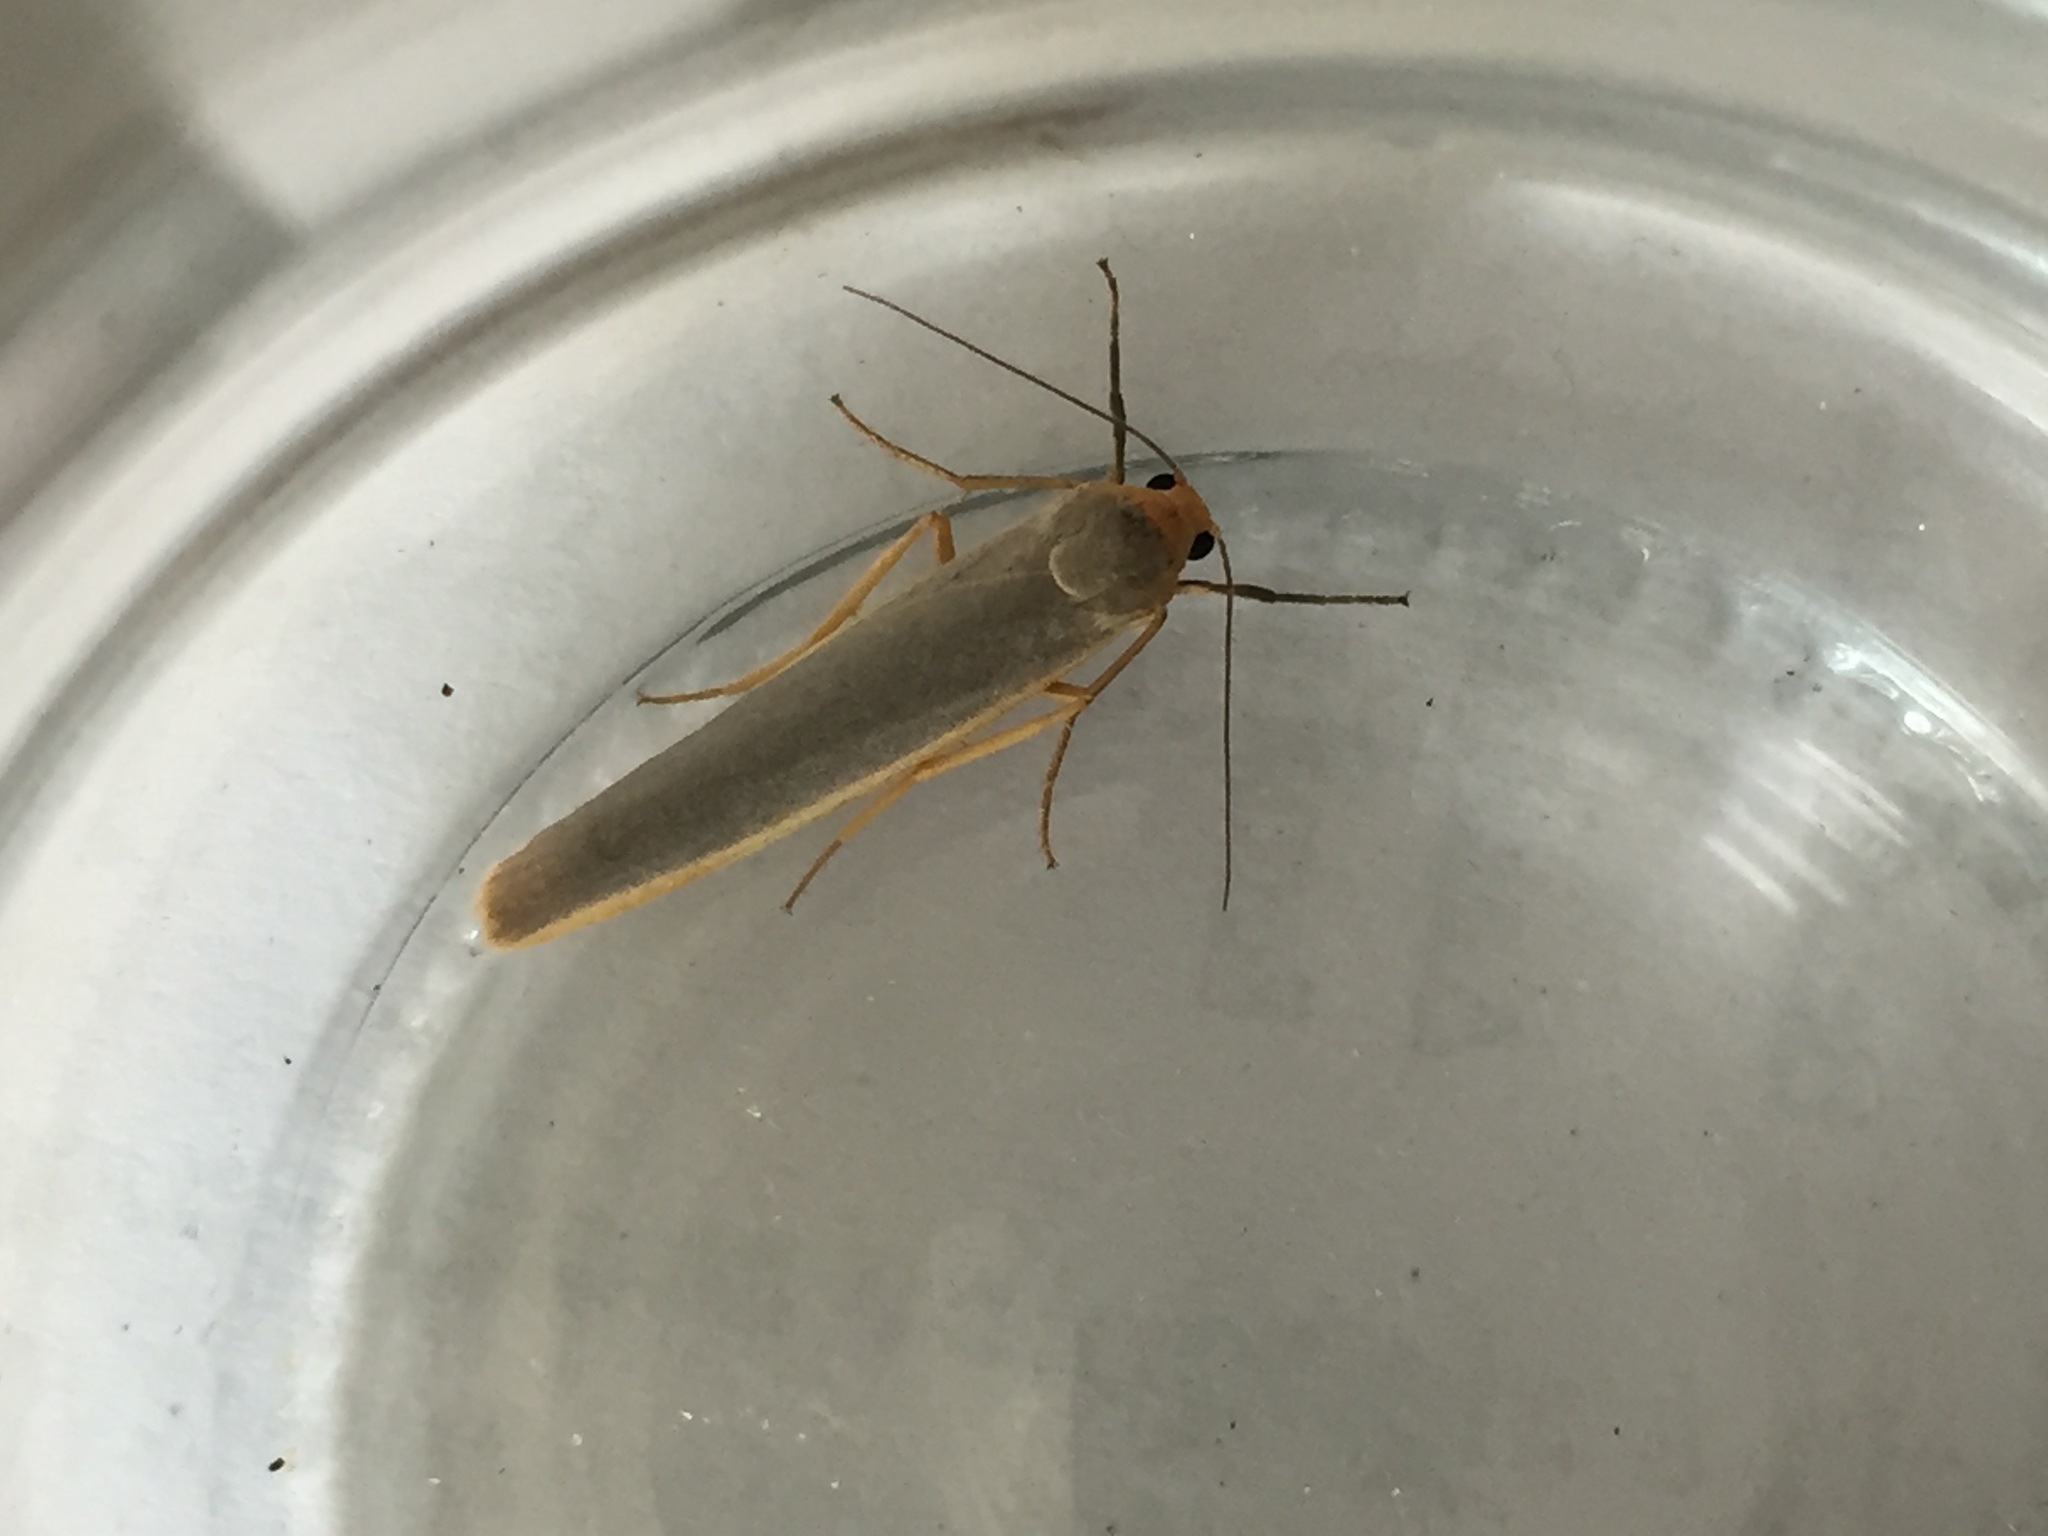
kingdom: Animalia
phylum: Arthropoda
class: Insecta
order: Lepidoptera
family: Erebidae
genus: Manulea
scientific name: Manulea complana
